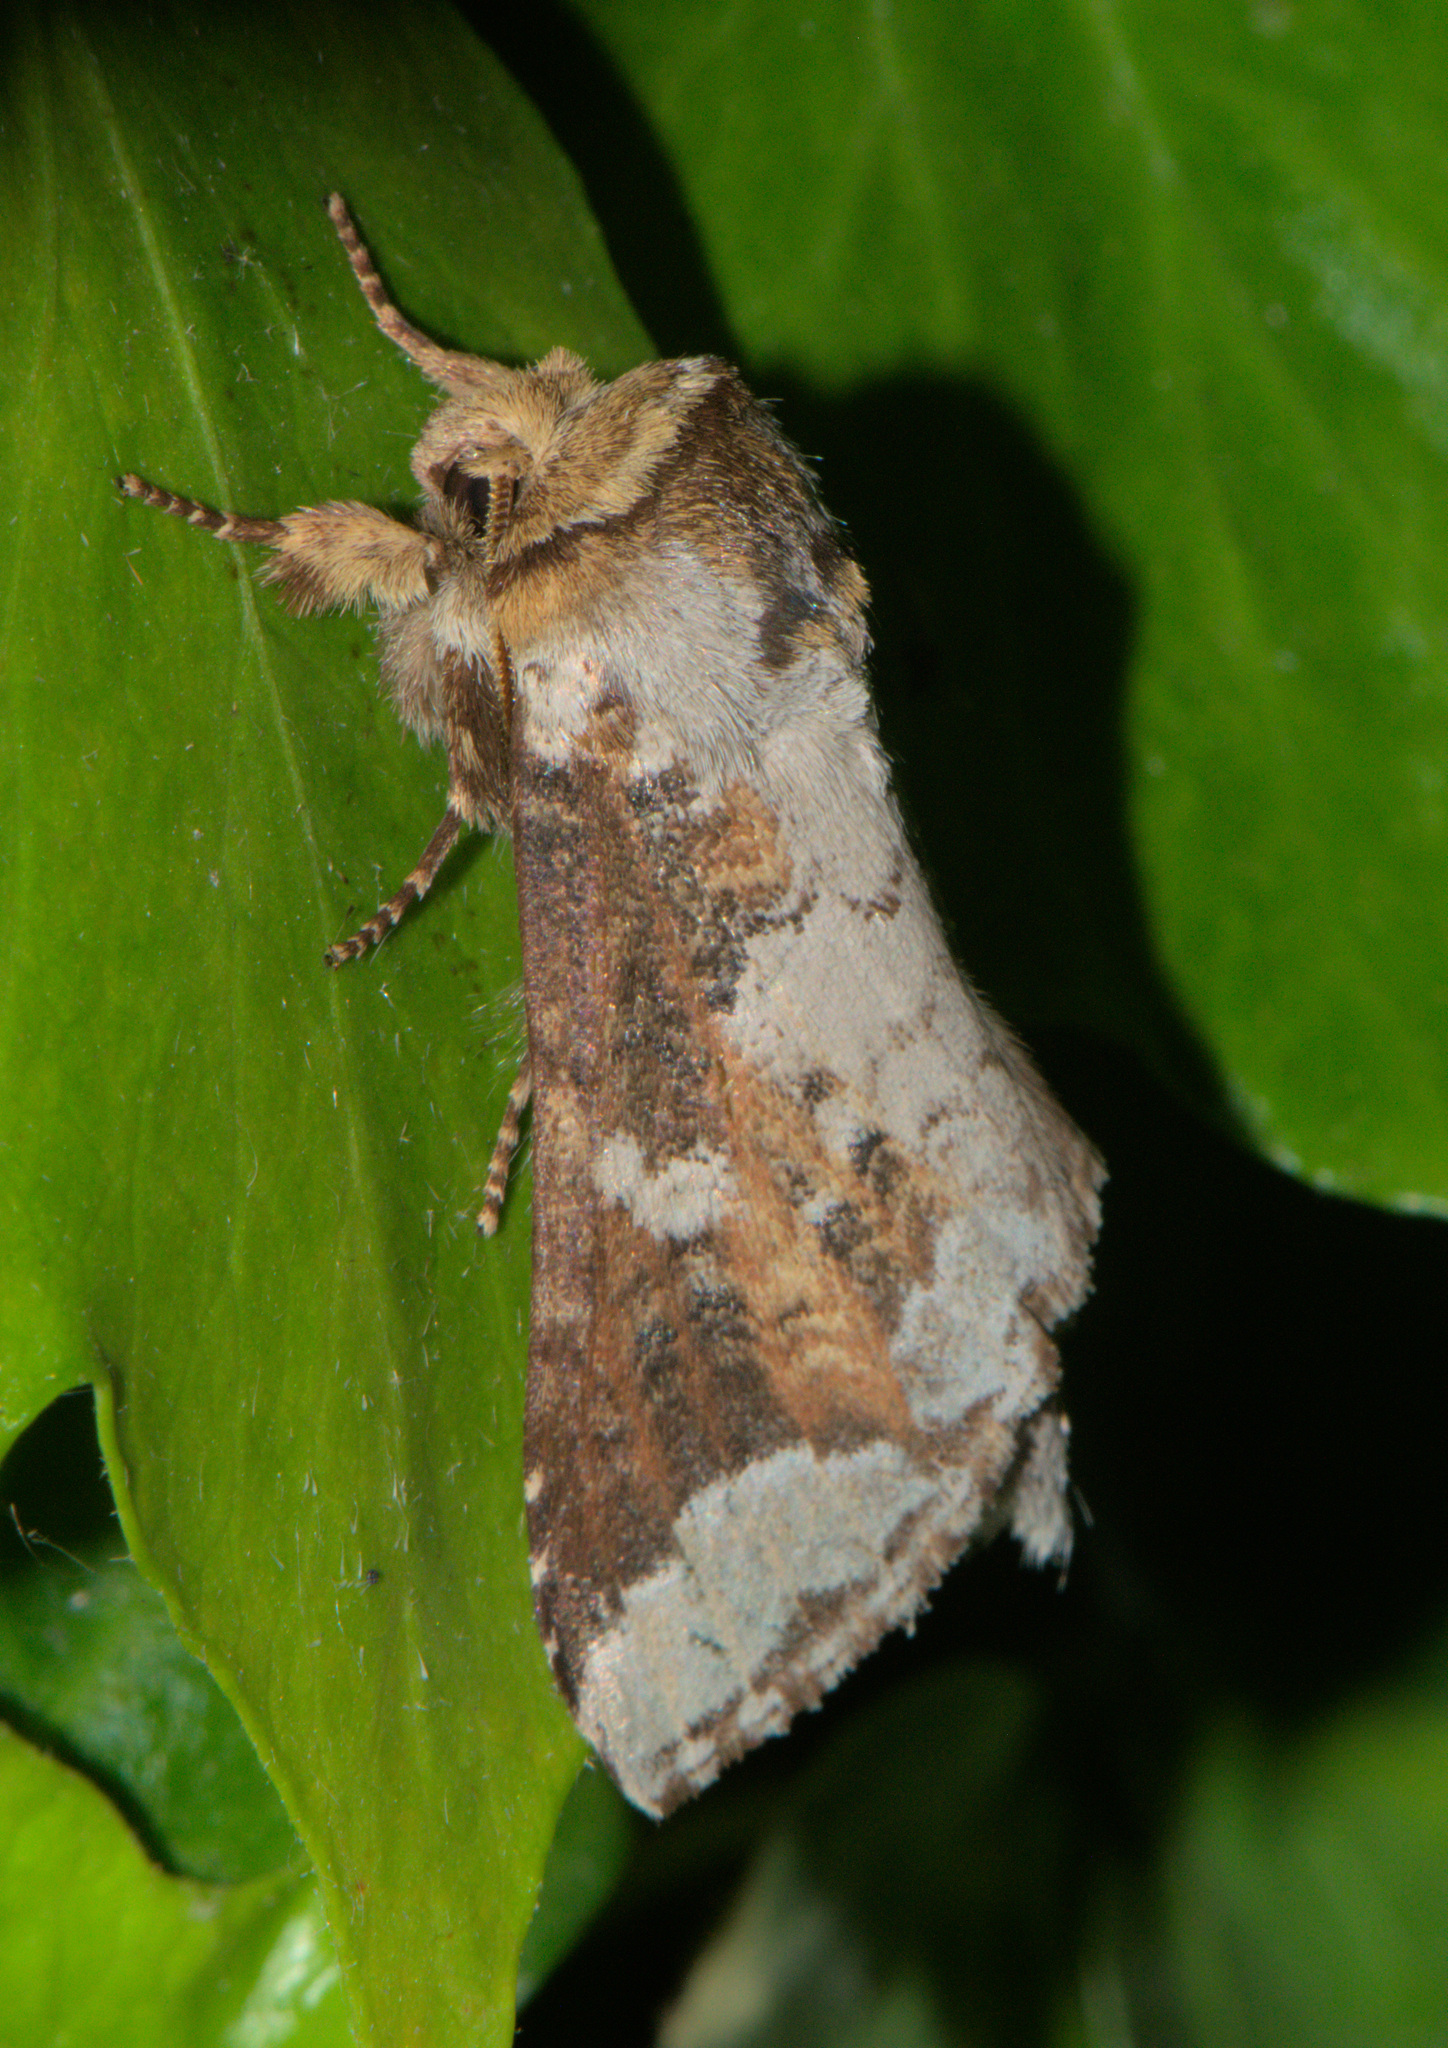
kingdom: Animalia
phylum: Arthropoda
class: Insecta
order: Lepidoptera
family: Notodontidae
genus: Neodrymonia
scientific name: Neodrymonia canifusa
